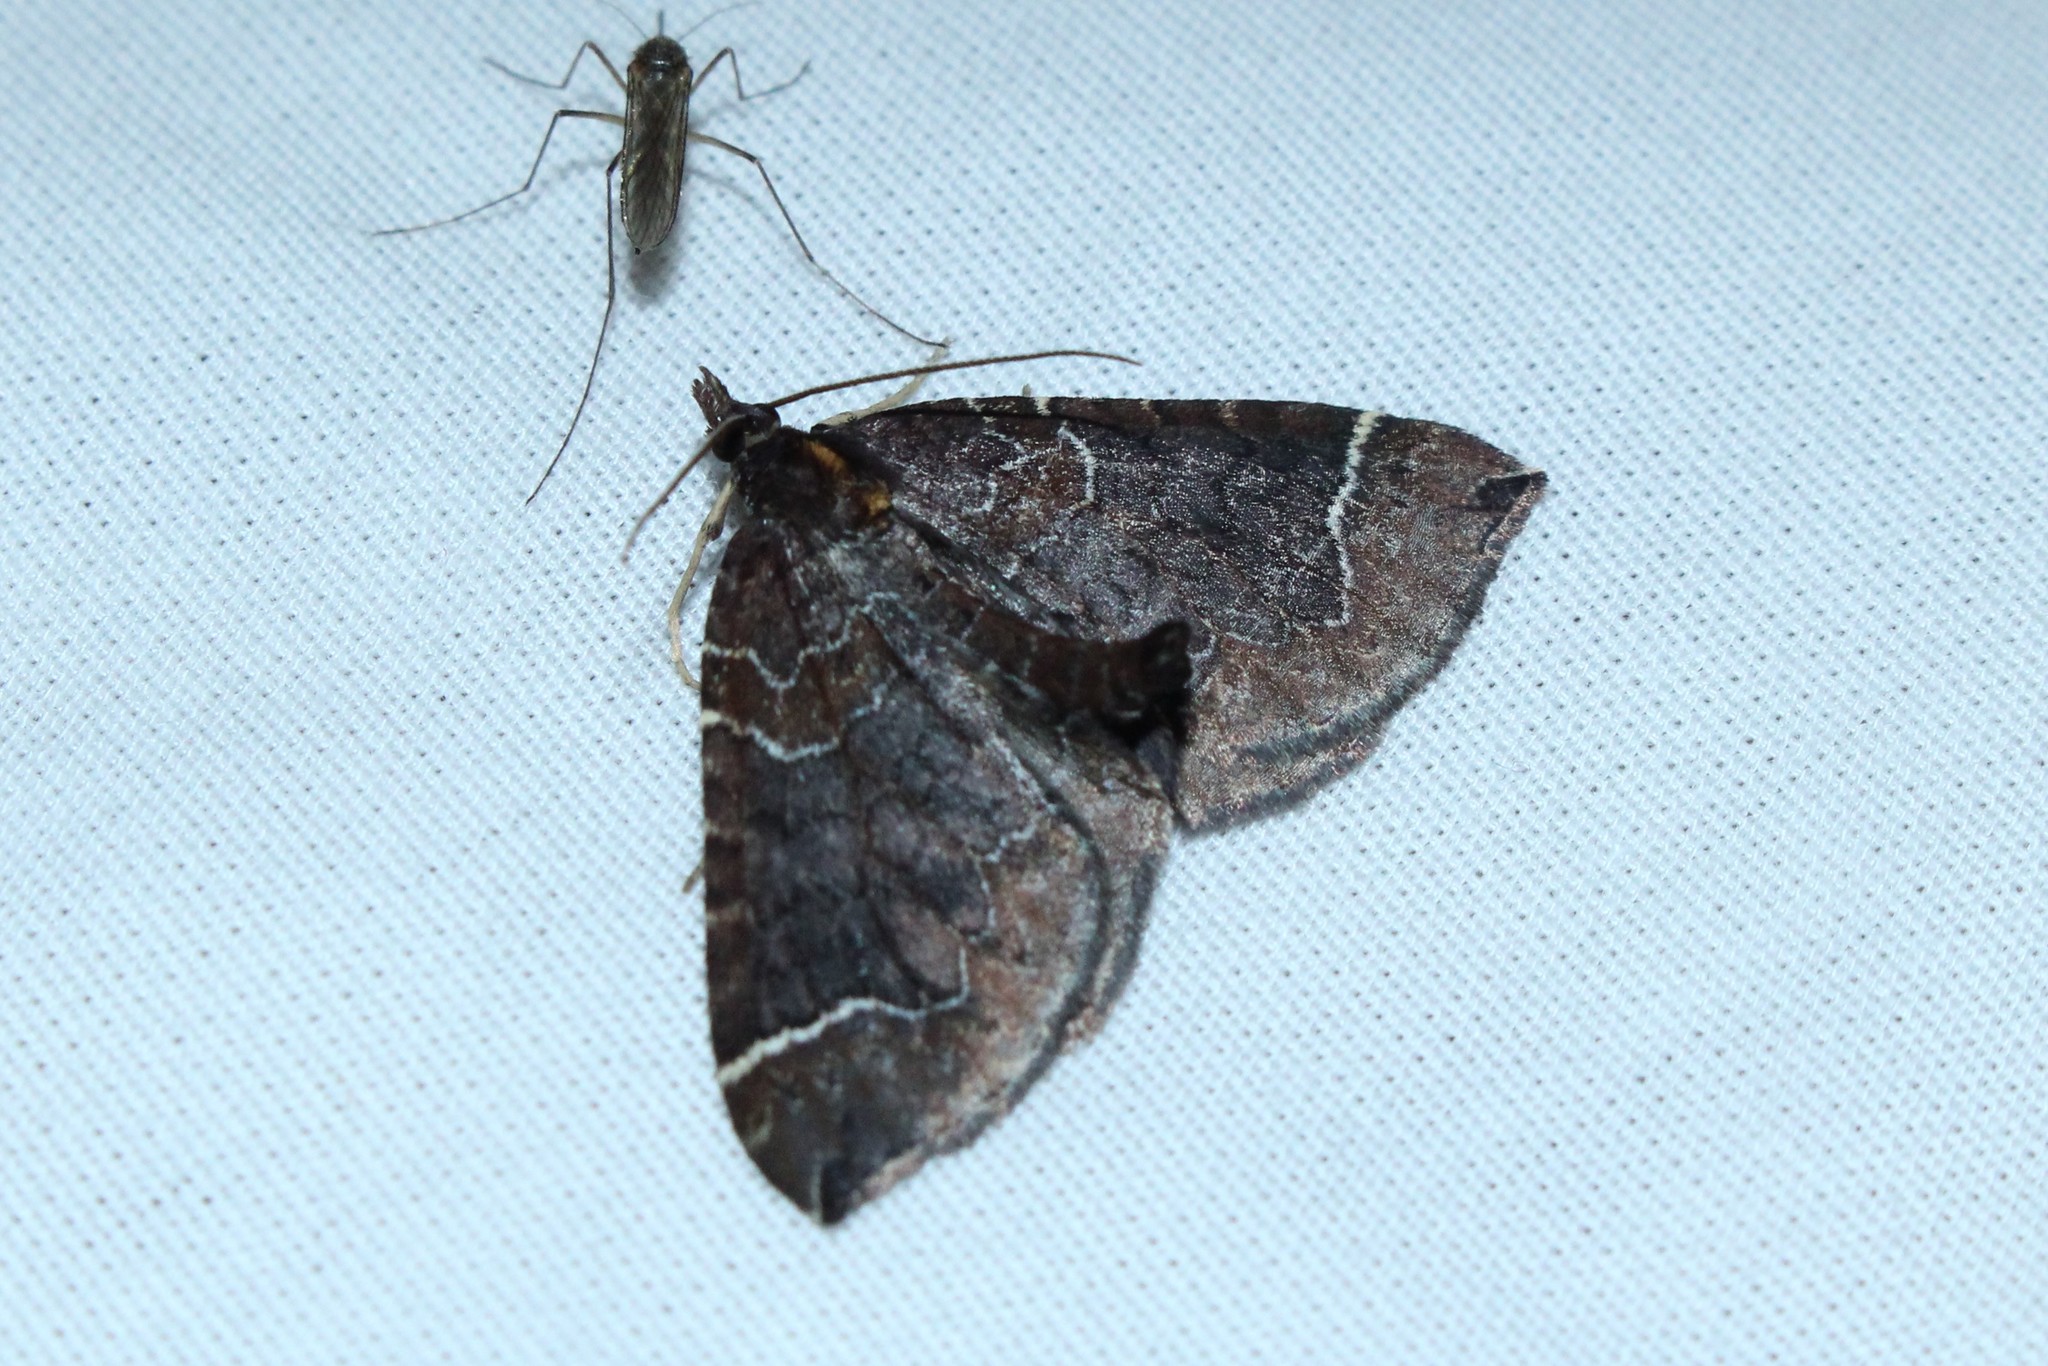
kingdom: Animalia
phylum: Arthropoda
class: Insecta
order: Lepidoptera
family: Geometridae
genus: Eulithis
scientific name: Eulithis flavibrunneata
